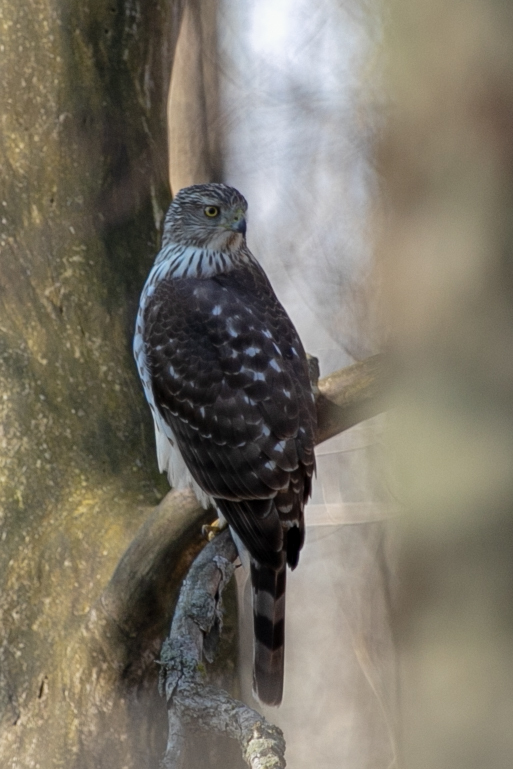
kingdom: Animalia
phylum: Chordata
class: Aves
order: Accipitriformes
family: Accipitridae
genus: Accipiter
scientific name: Accipiter cooperii
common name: Cooper's hawk
